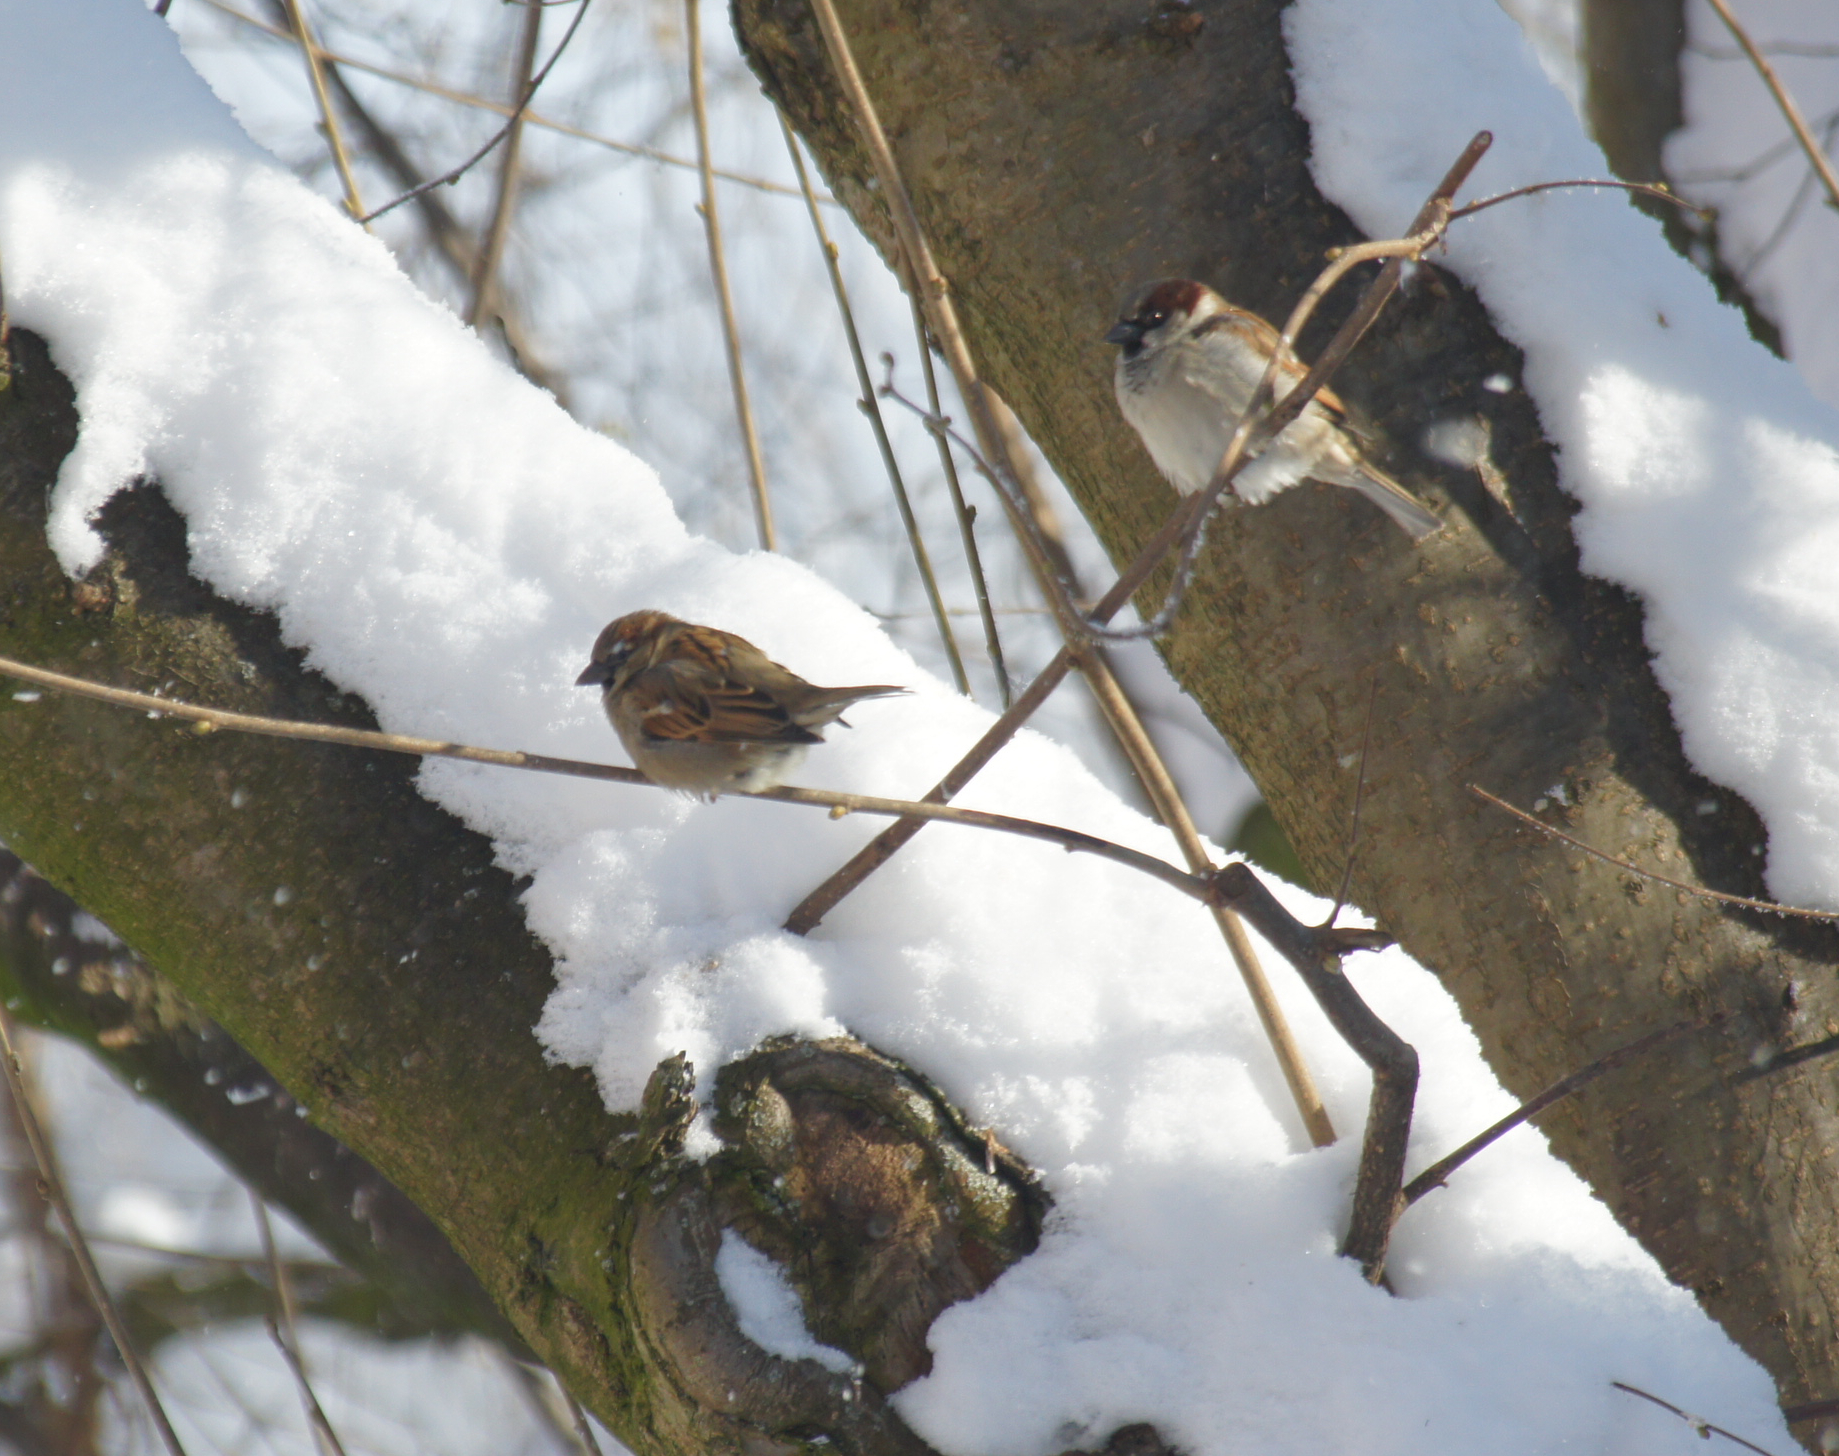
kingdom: Animalia
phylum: Chordata
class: Aves
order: Passeriformes
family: Passeridae
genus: Passer
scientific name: Passer domesticus
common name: House sparrow
